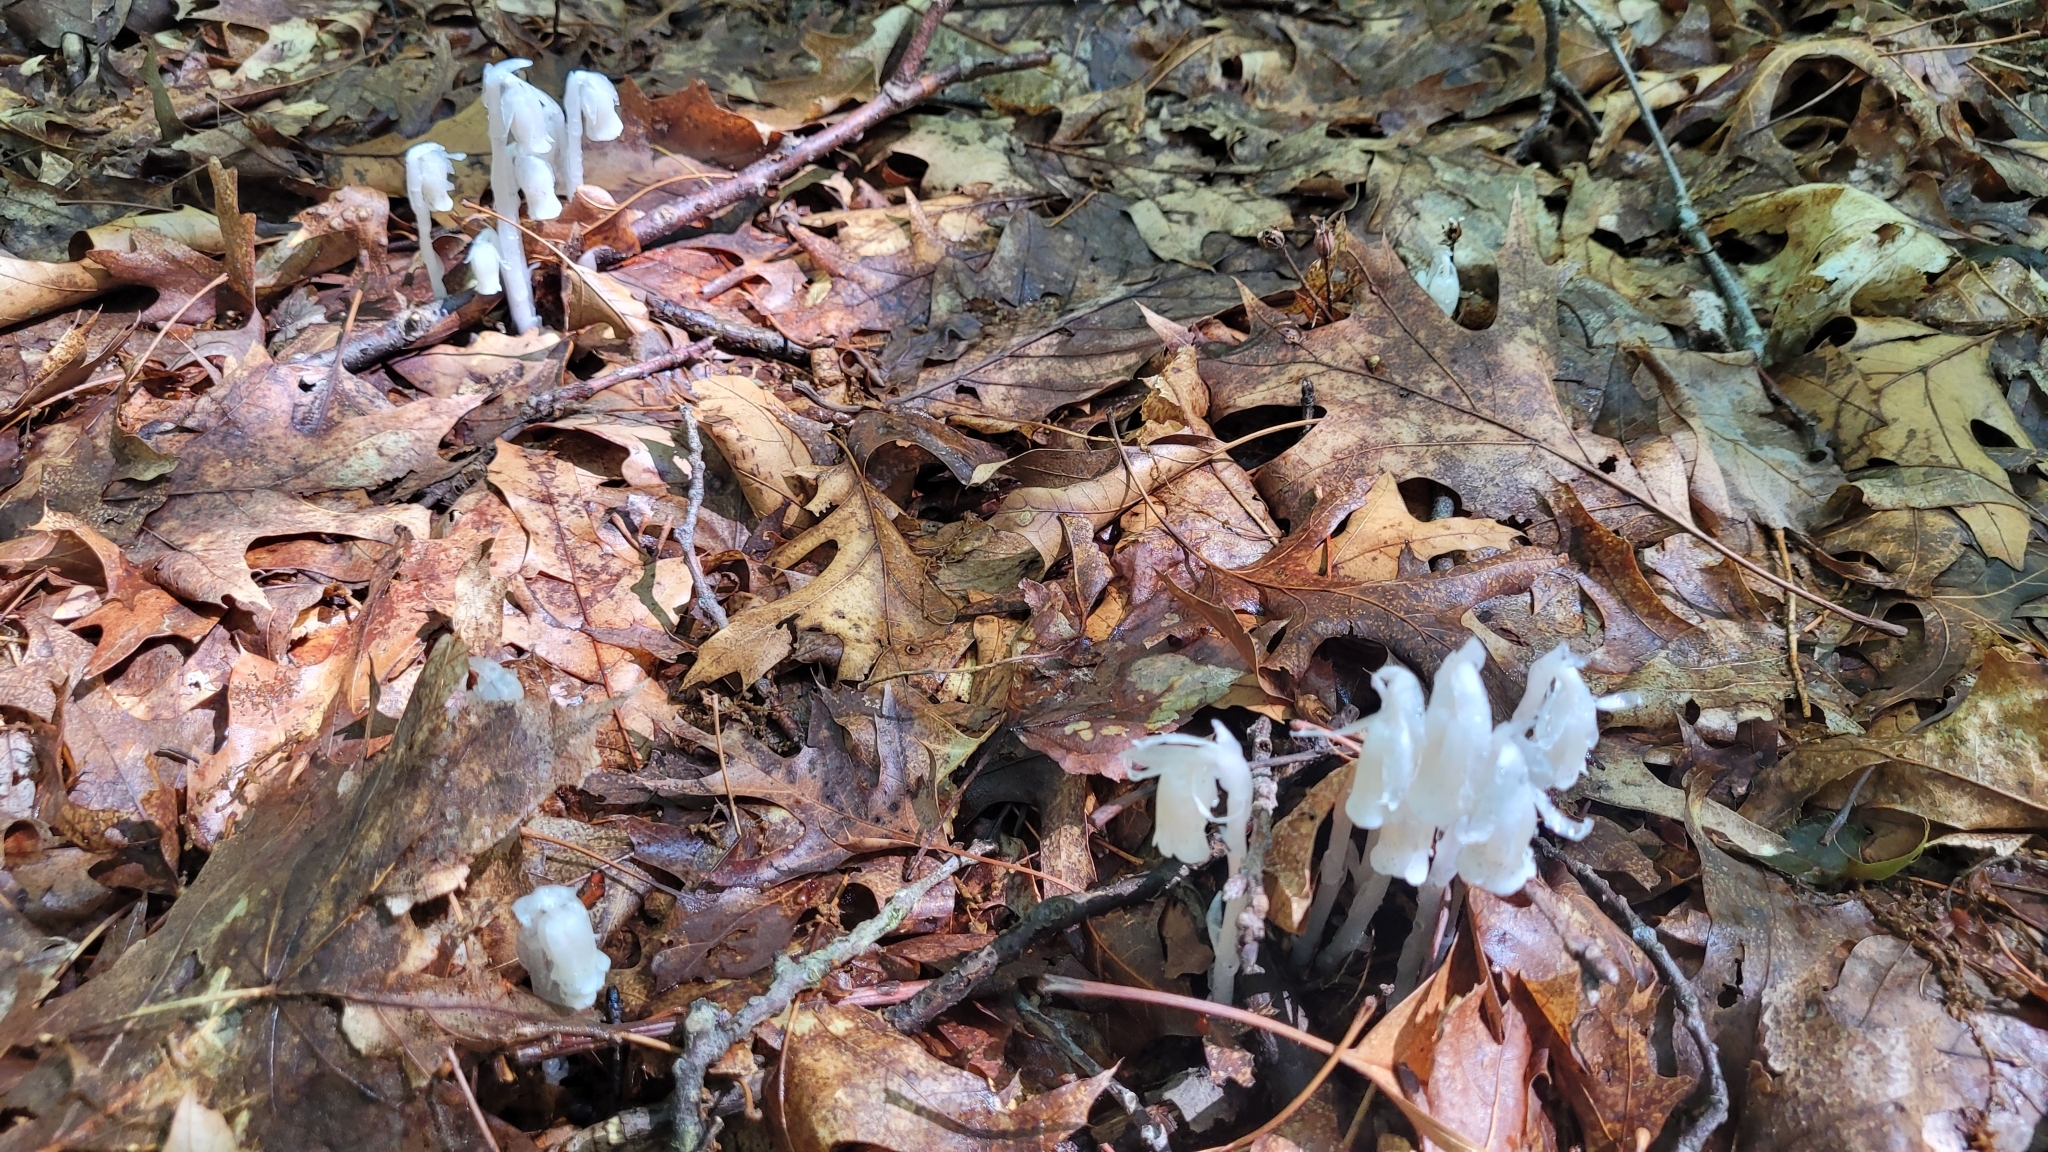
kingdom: Plantae
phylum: Tracheophyta
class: Magnoliopsida
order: Ericales
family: Ericaceae
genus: Monotropa
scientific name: Monotropa uniflora
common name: Convulsion root
